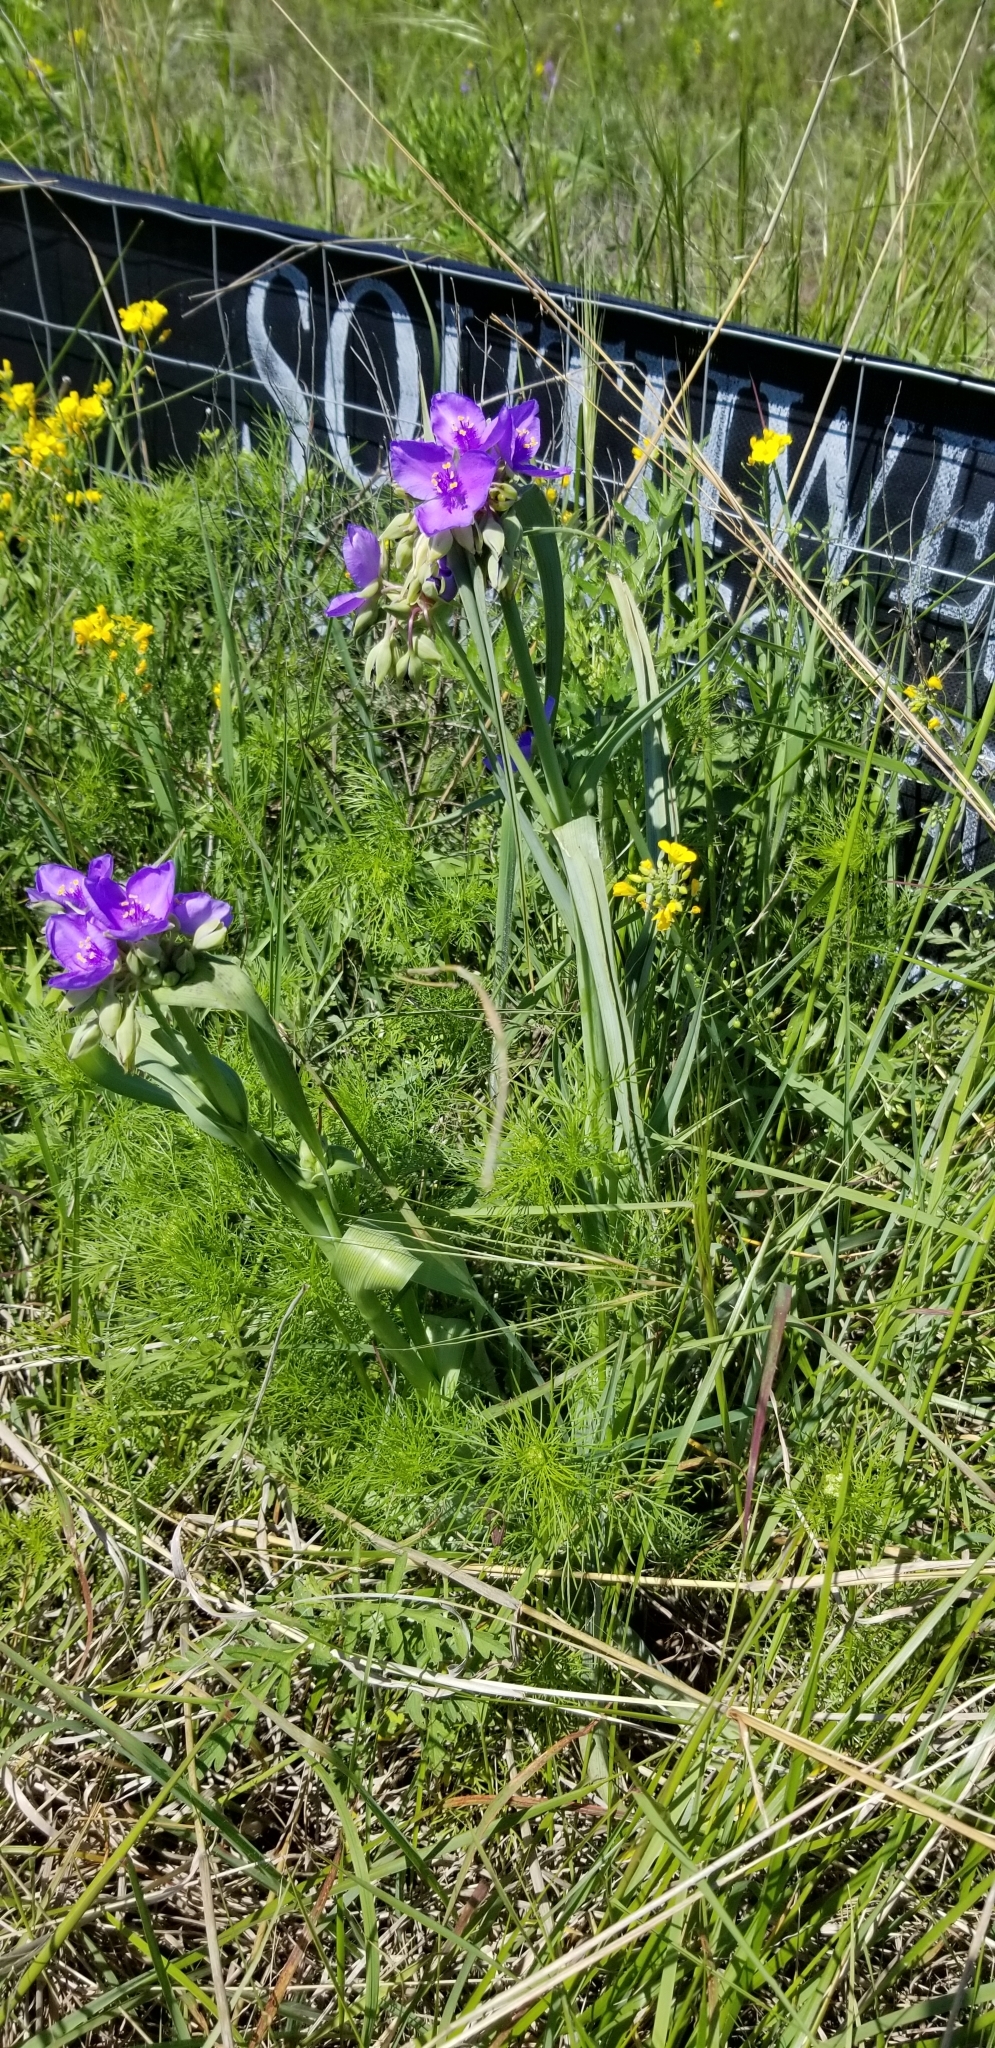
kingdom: Plantae
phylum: Tracheophyta
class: Liliopsida
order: Commelinales
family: Commelinaceae
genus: Tradescantia
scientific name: Tradescantia ohiensis
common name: Ohio spiderwort
